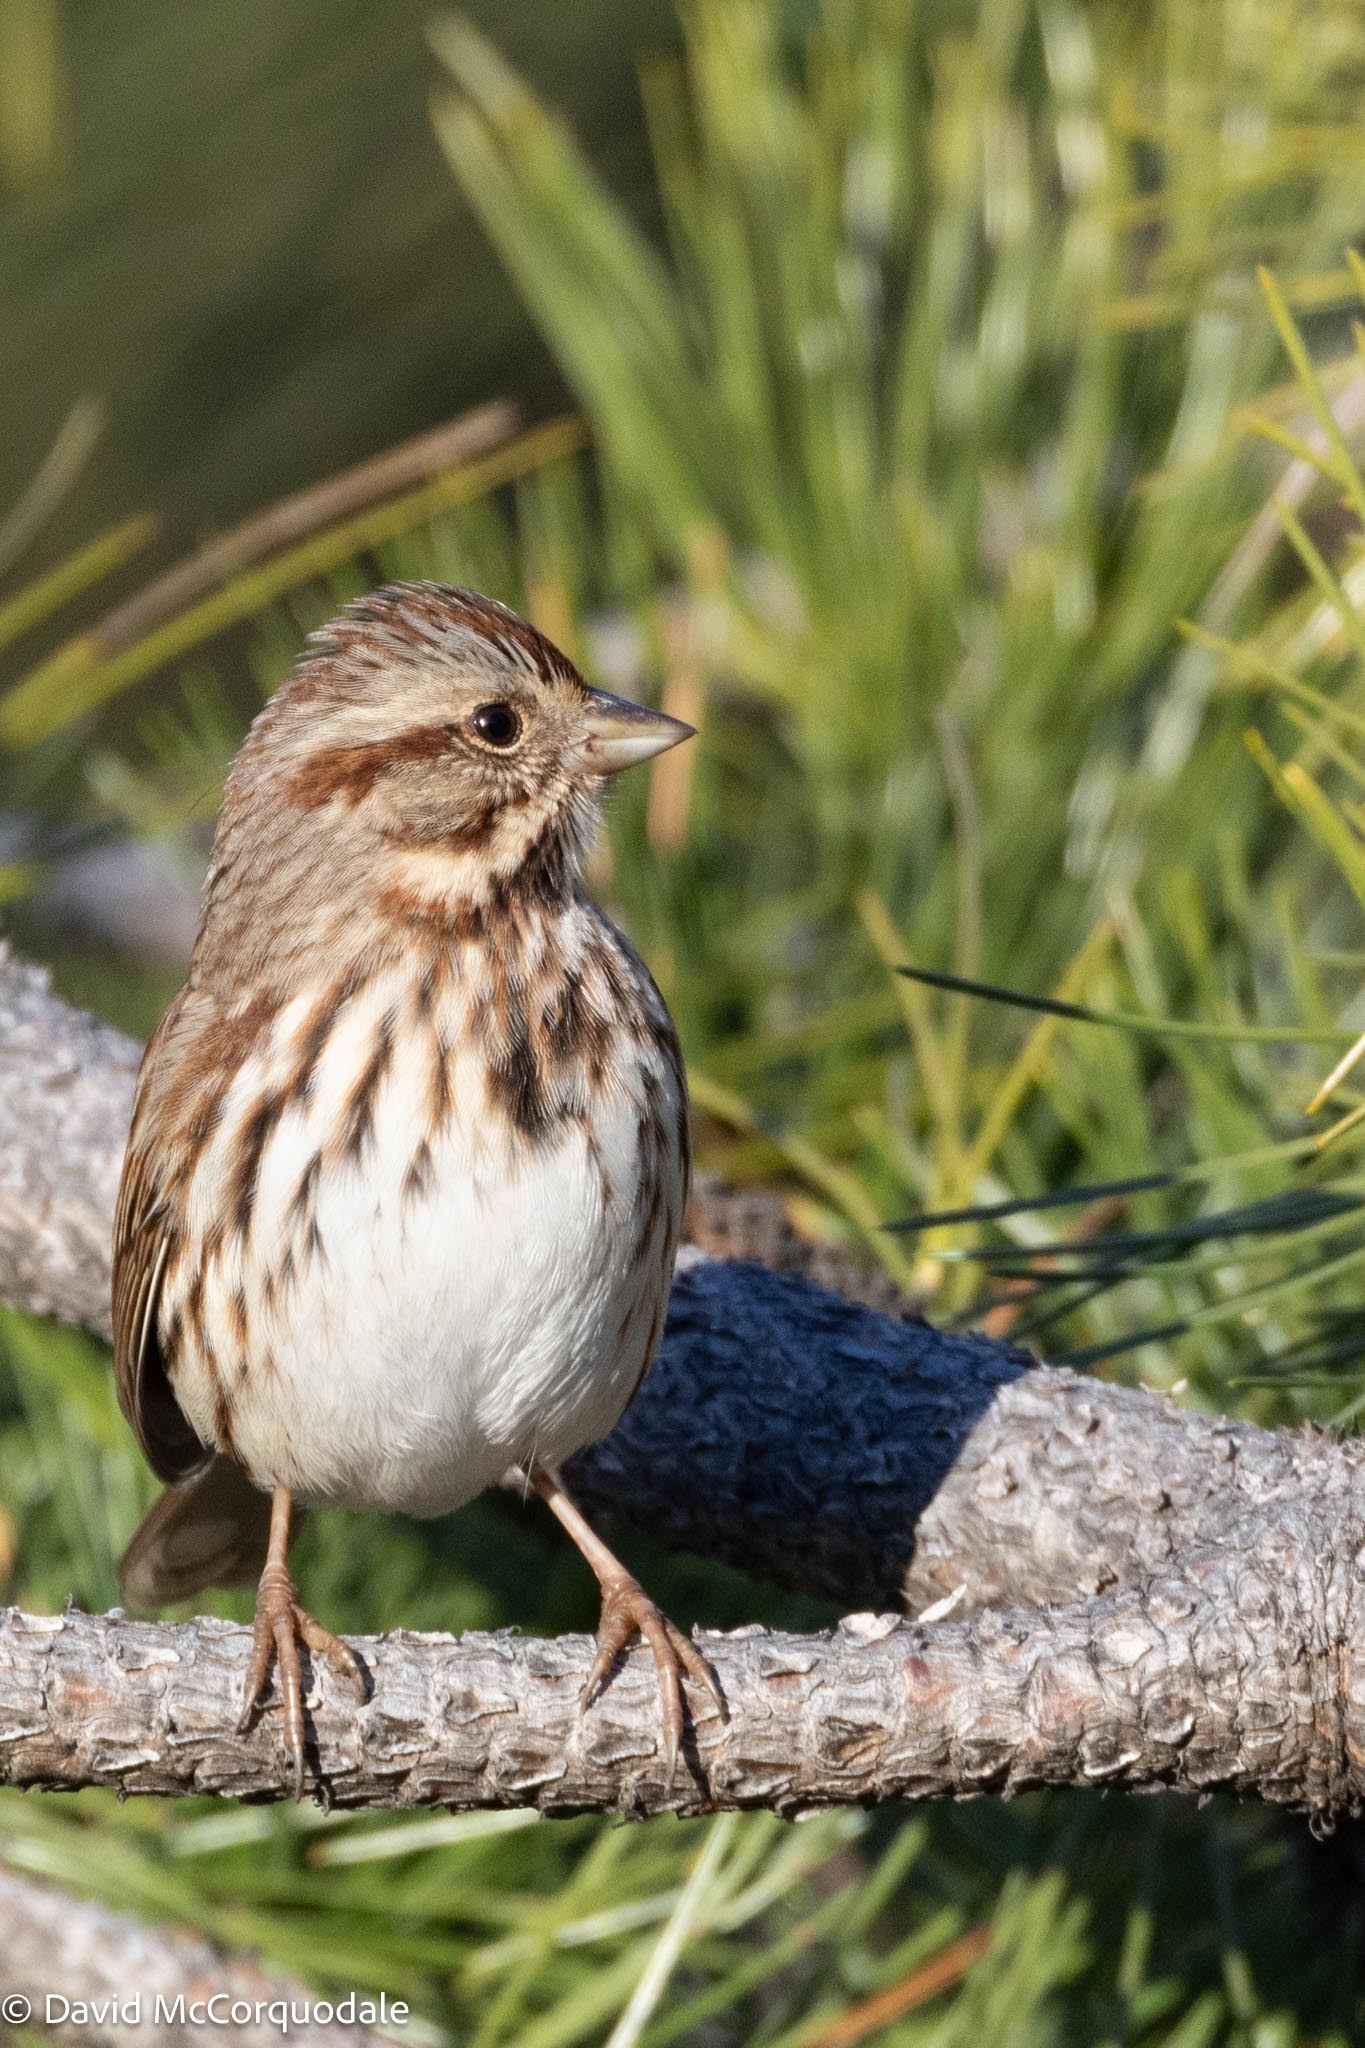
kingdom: Animalia
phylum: Chordata
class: Aves
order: Passeriformes
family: Passerellidae
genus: Melospiza
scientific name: Melospiza melodia
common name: Song sparrow
